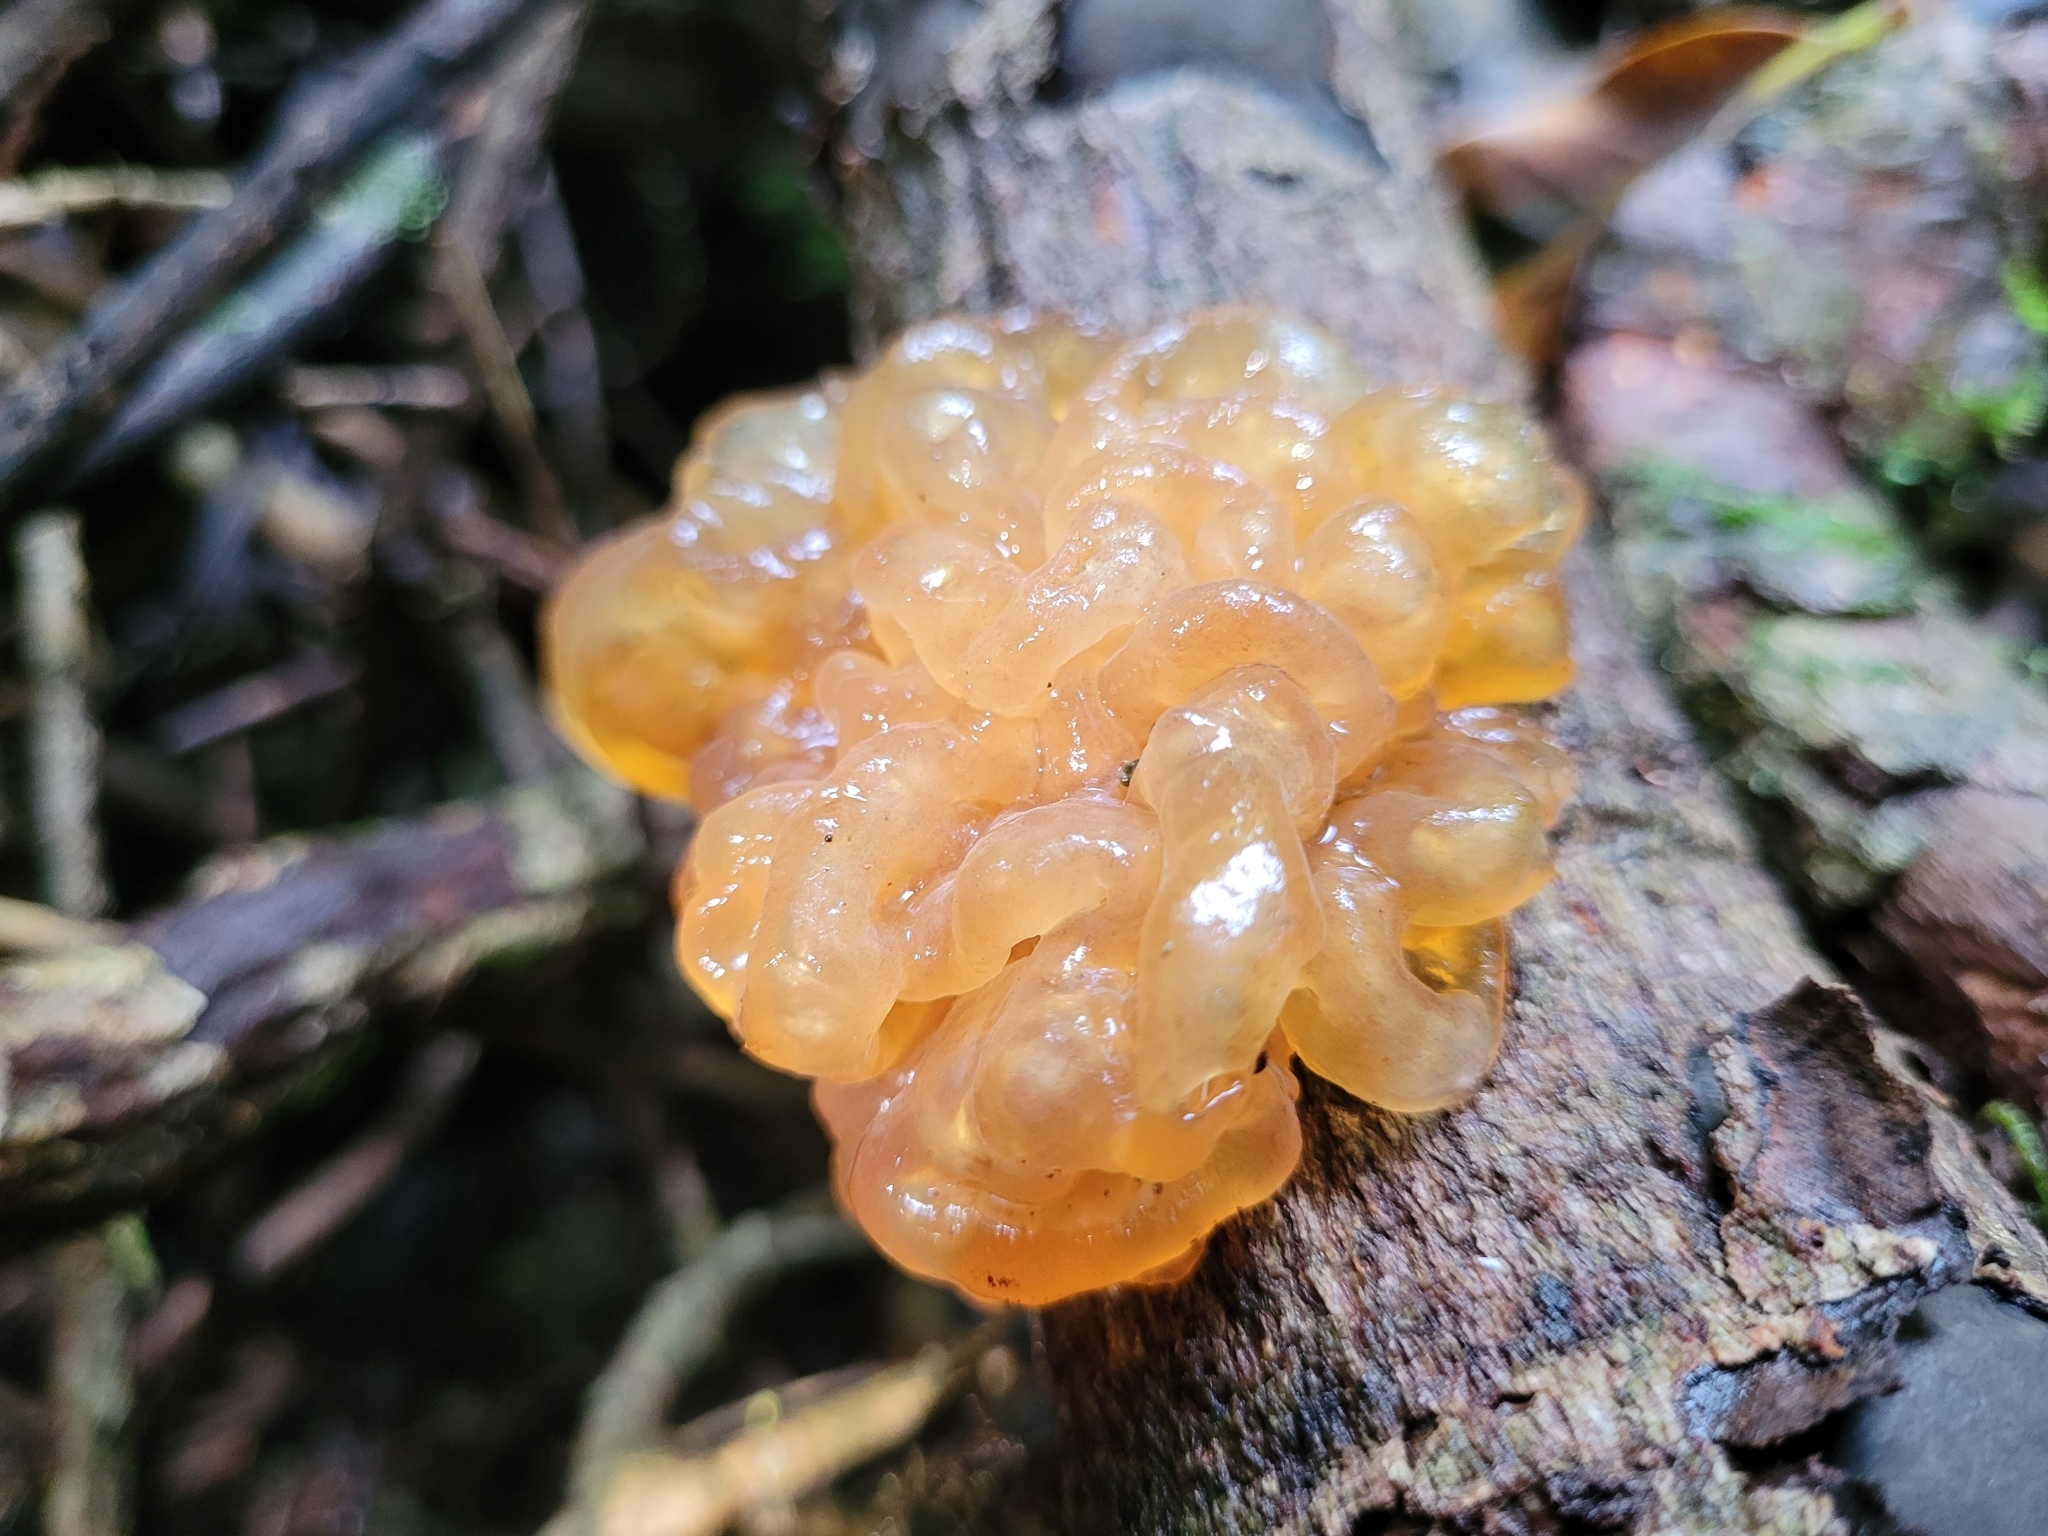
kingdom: Fungi
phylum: Basidiomycota
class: Tremellomycetes
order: Tremellales
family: Tremellaceae
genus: Tremella
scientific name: Tremella vesiculosa
